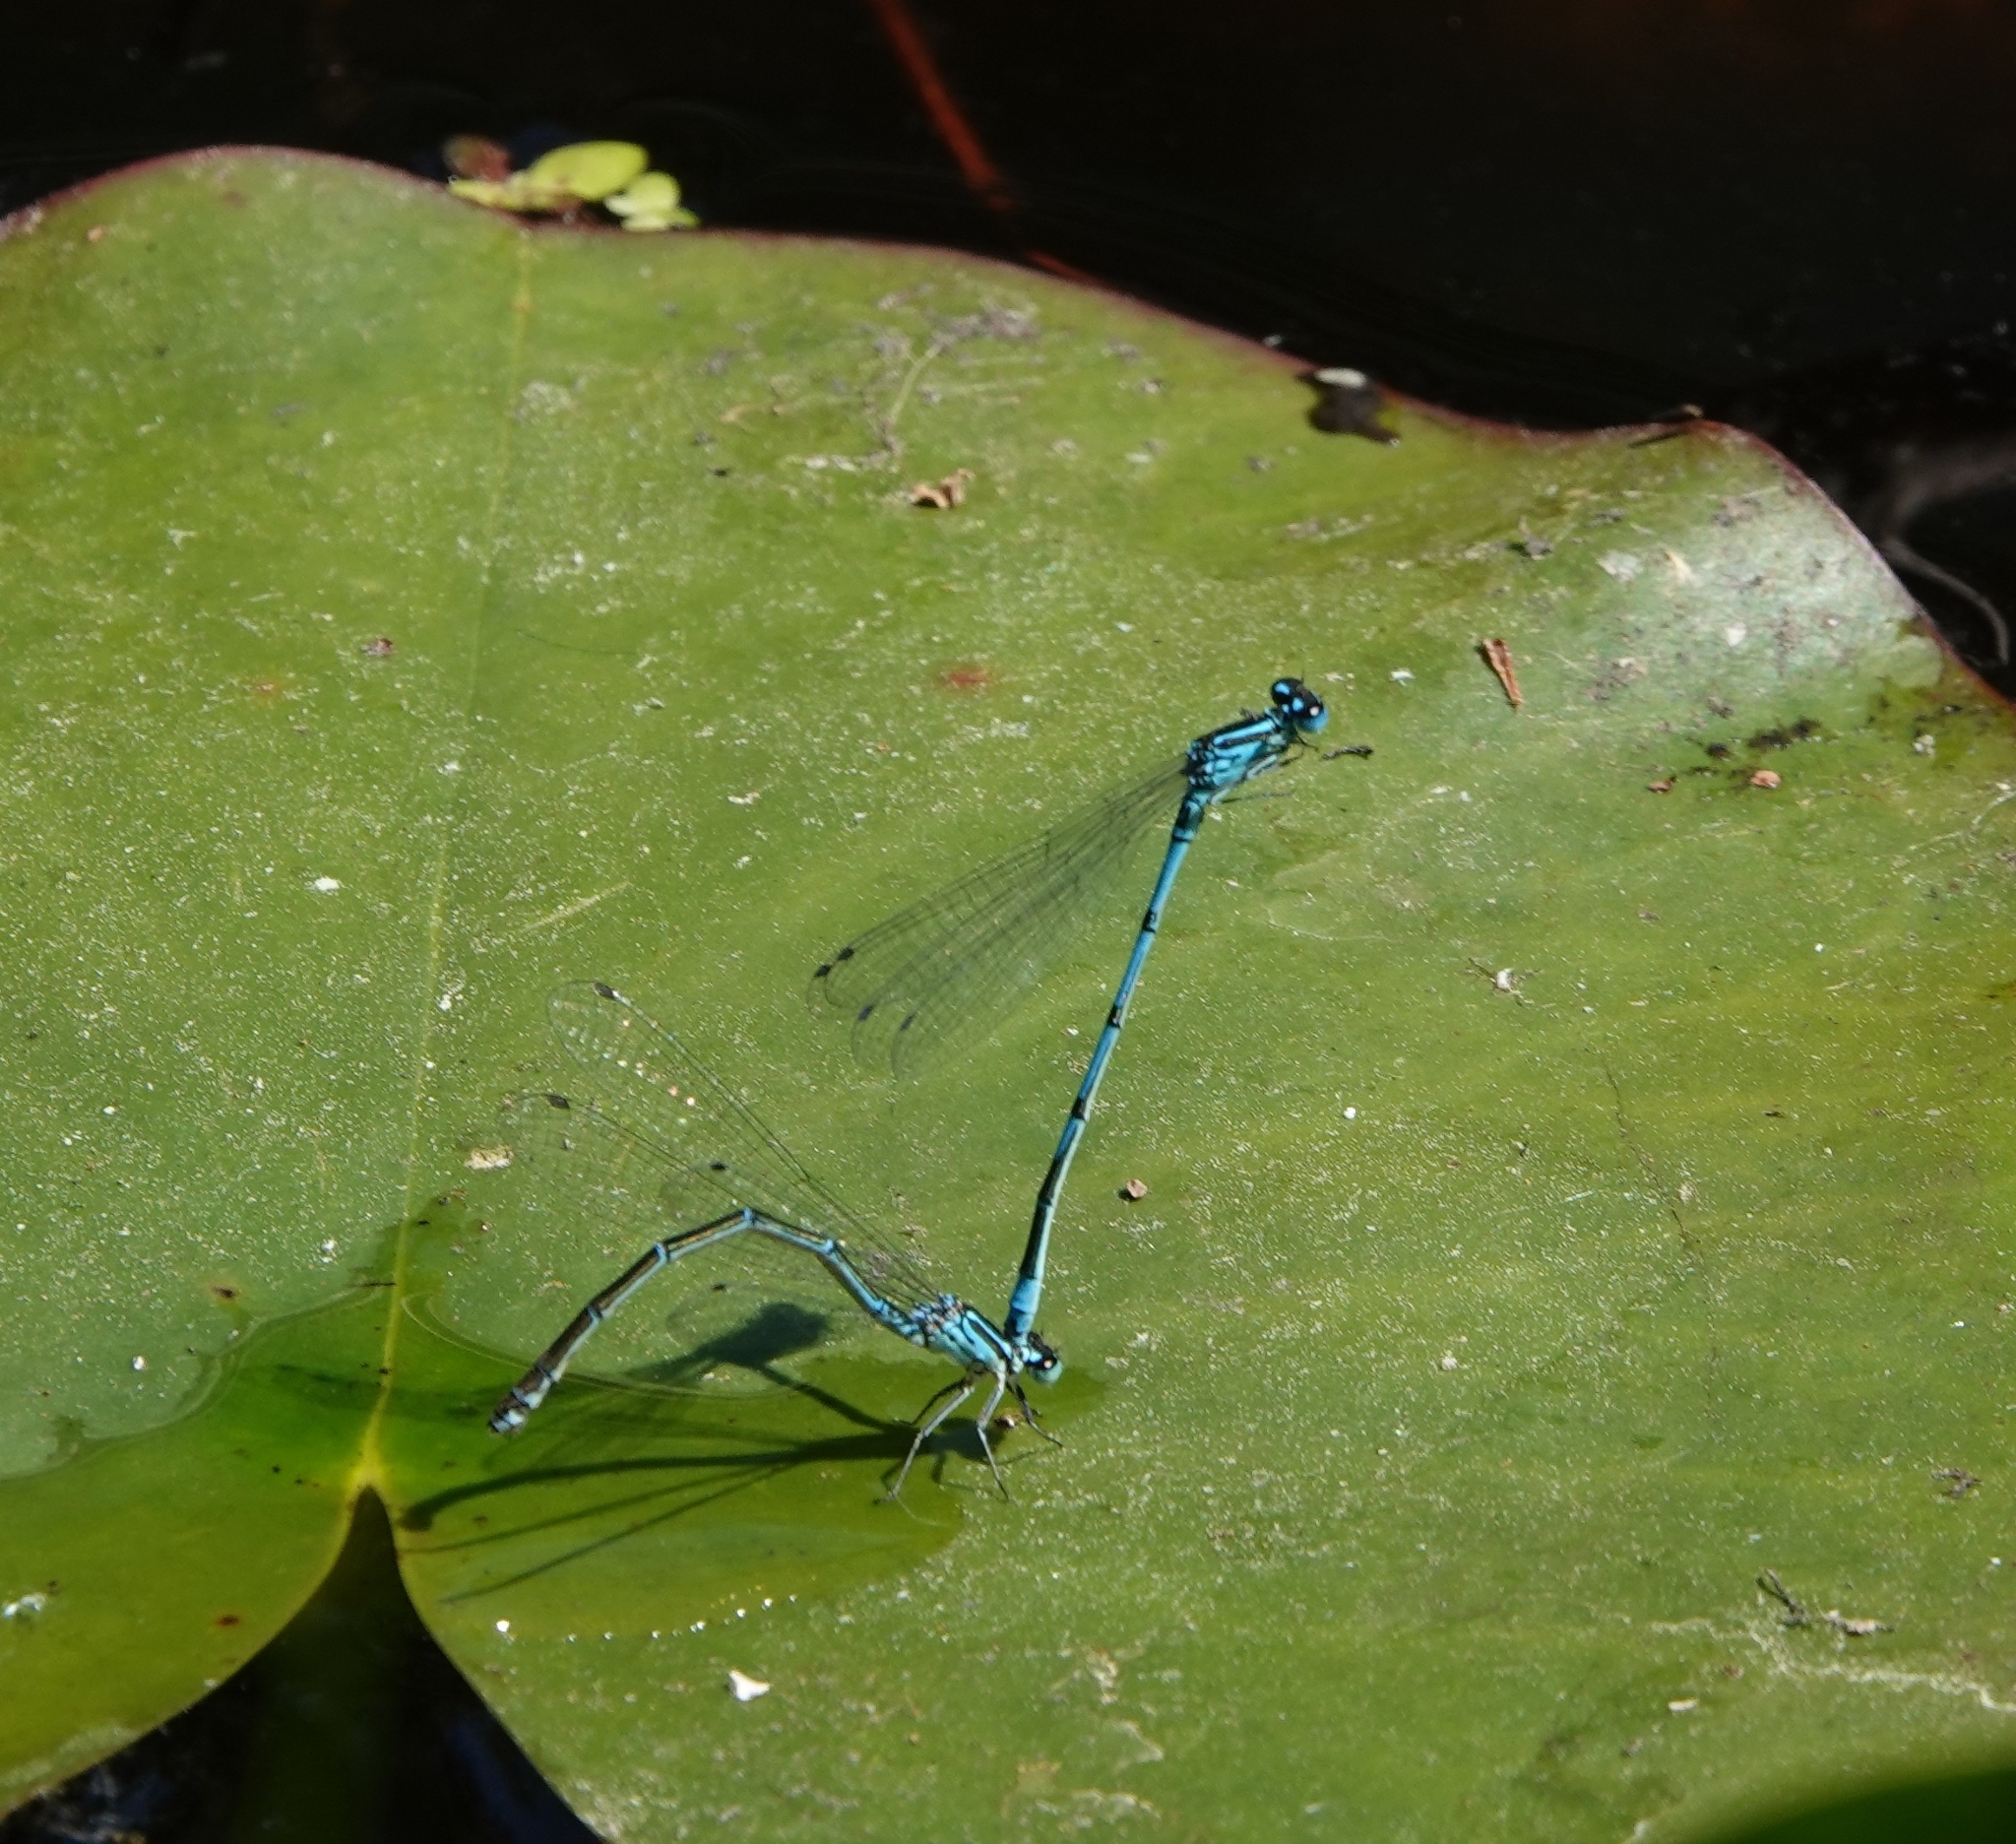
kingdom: Animalia
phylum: Arthropoda
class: Insecta
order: Odonata
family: Coenagrionidae
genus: Coenagrion
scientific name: Coenagrion puella
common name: Azure damselfly
